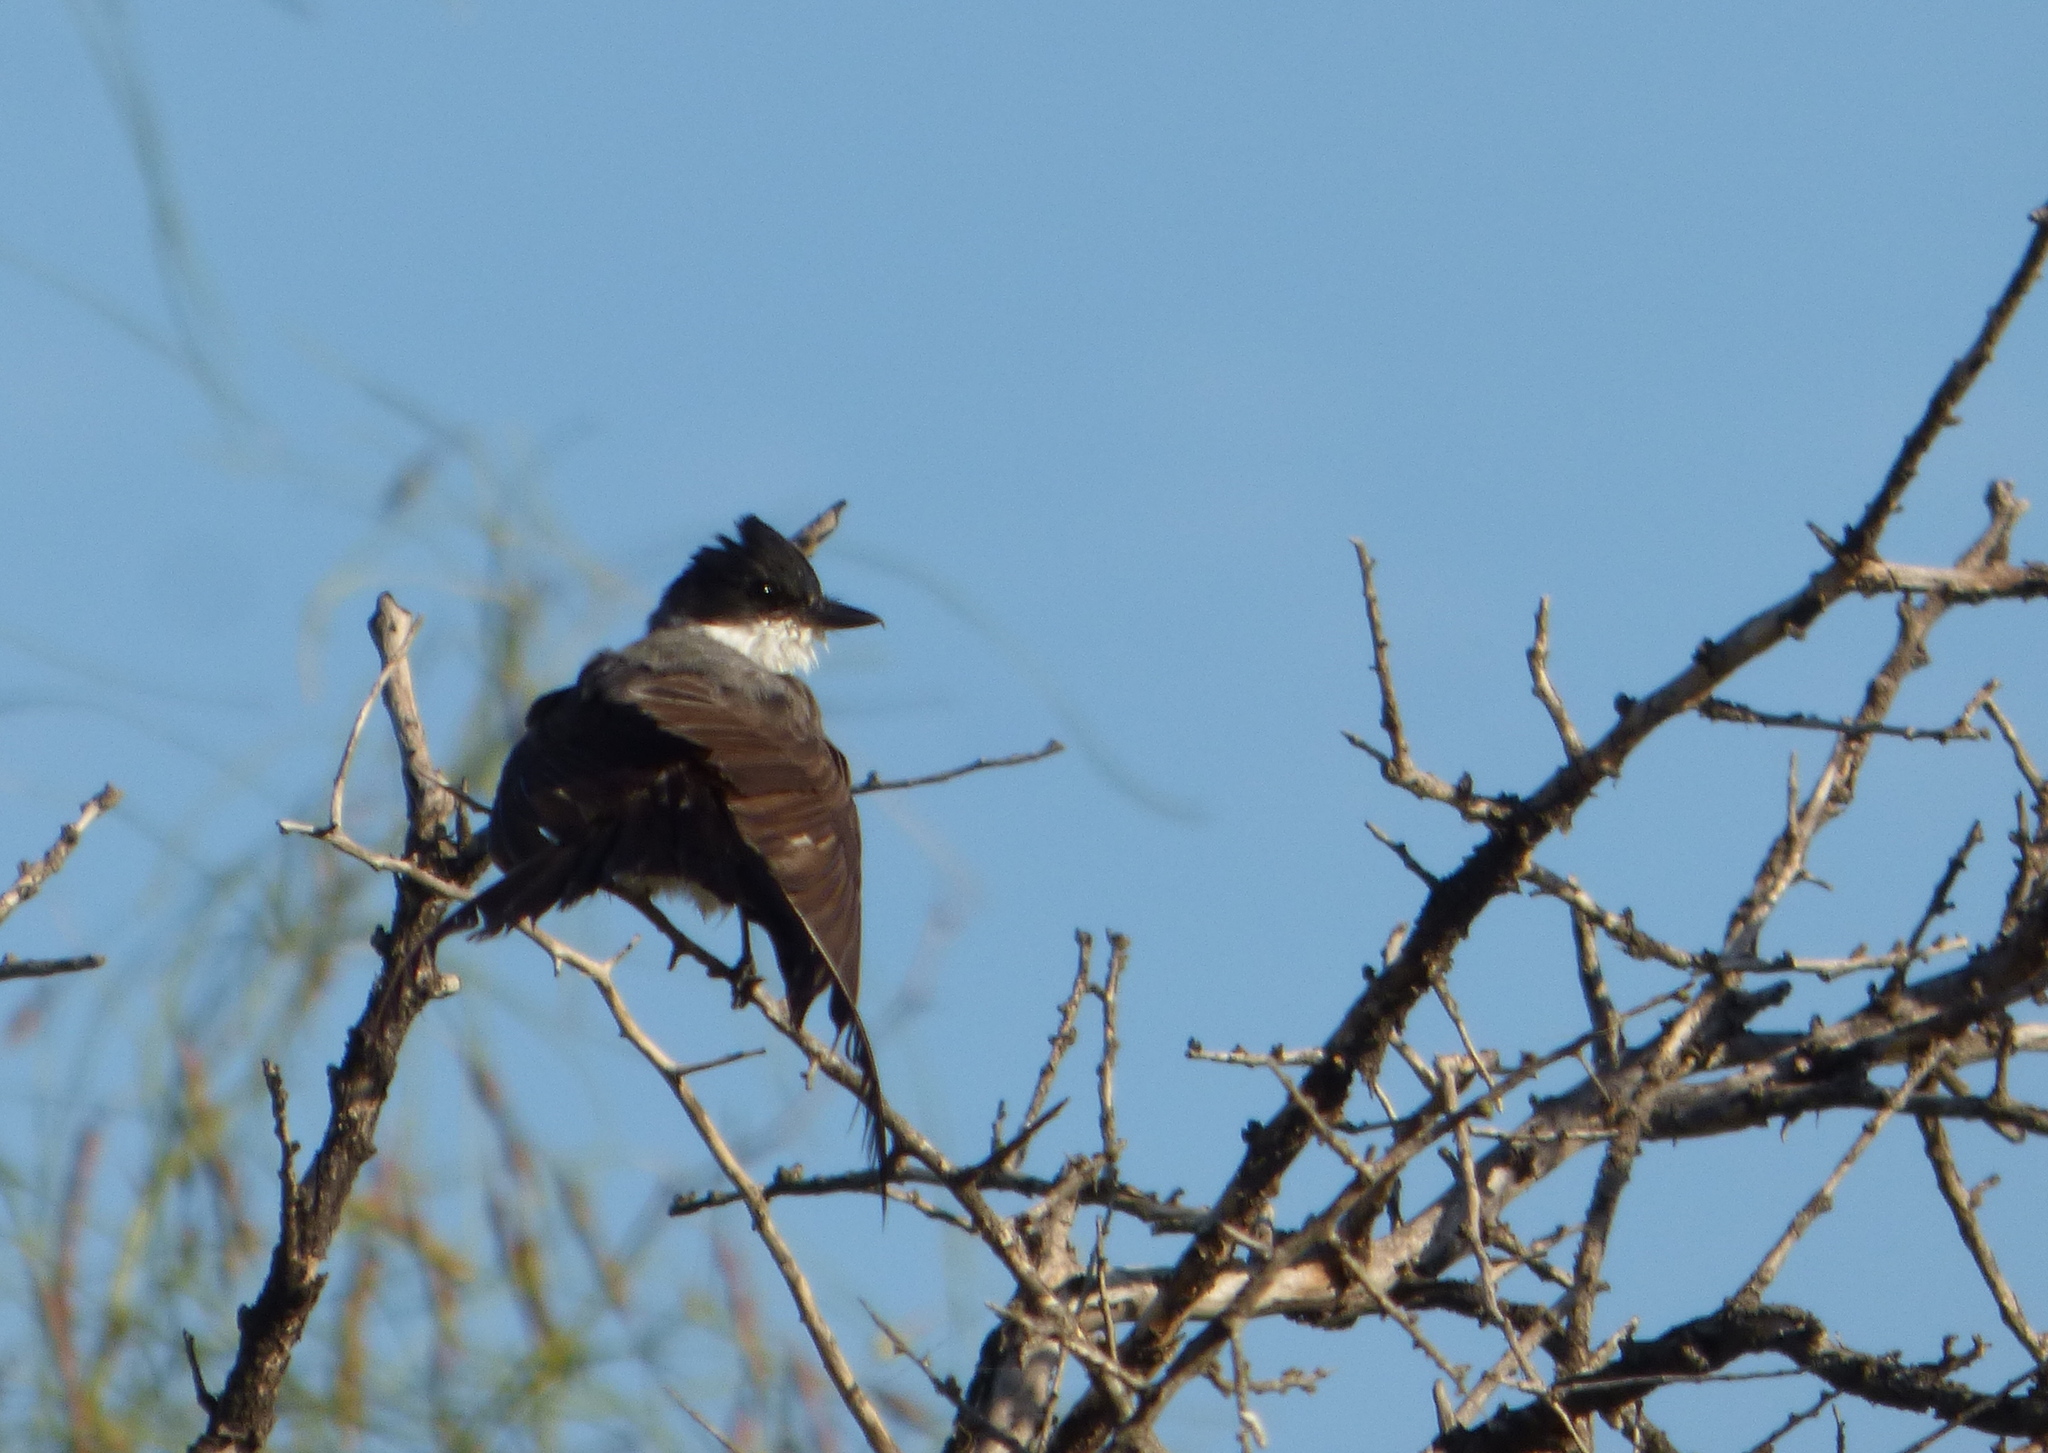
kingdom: Animalia
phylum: Chordata
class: Aves
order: Passeriformes
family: Tyrannidae
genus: Tyrannus
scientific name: Tyrannus savana
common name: Fork-tailed flycatcher
